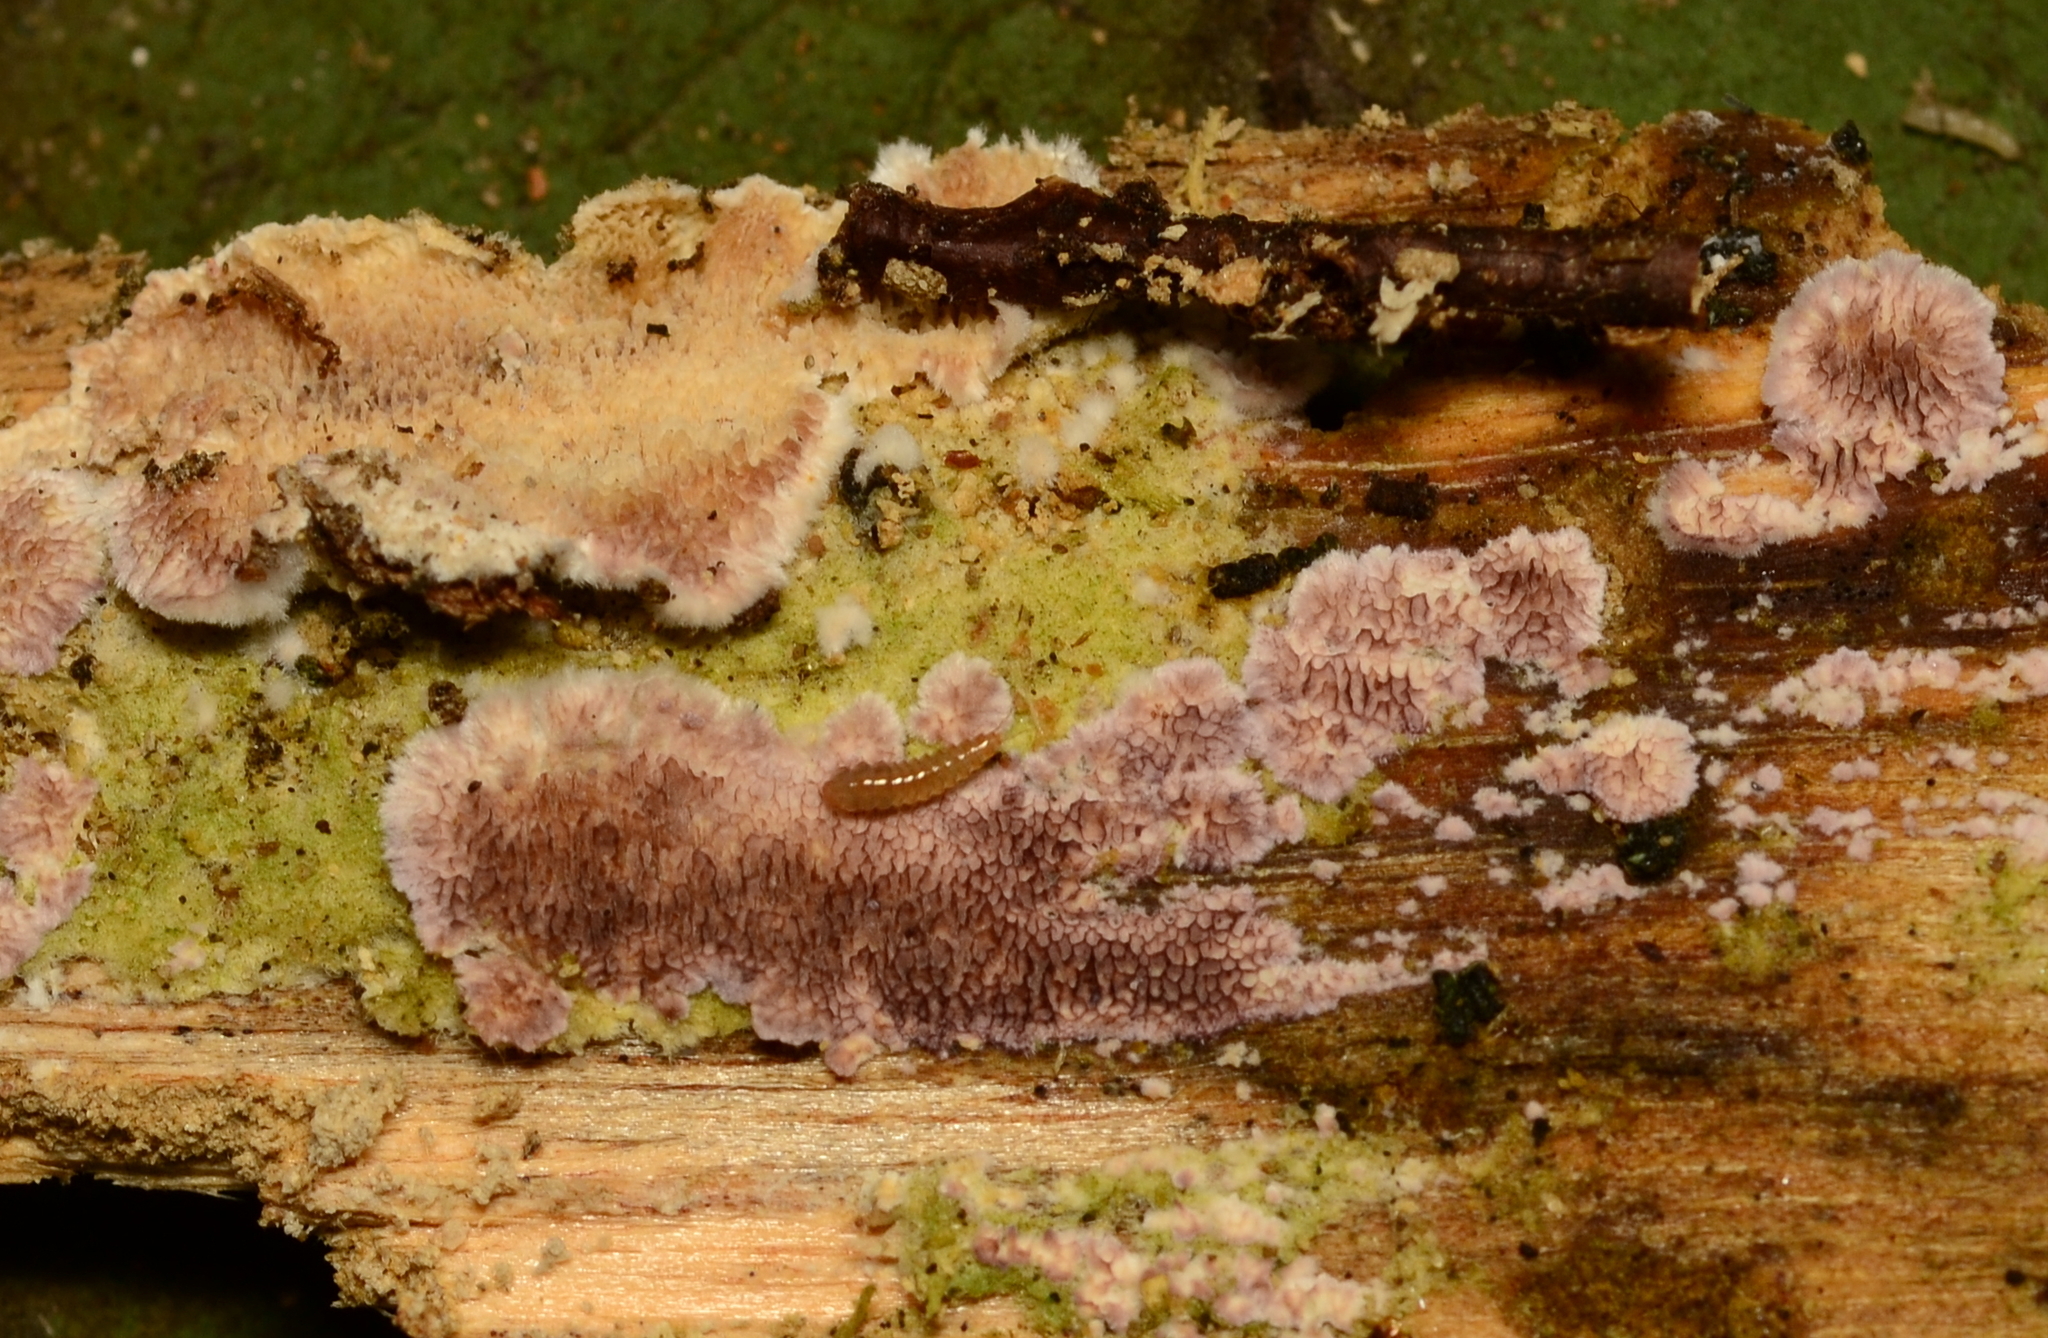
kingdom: Fungi
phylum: Basidiomycota
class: Agaricomycetes
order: Hymenochaetales
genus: Trichaptum
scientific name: Trichaptum abietinum
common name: Purplepore bracket
